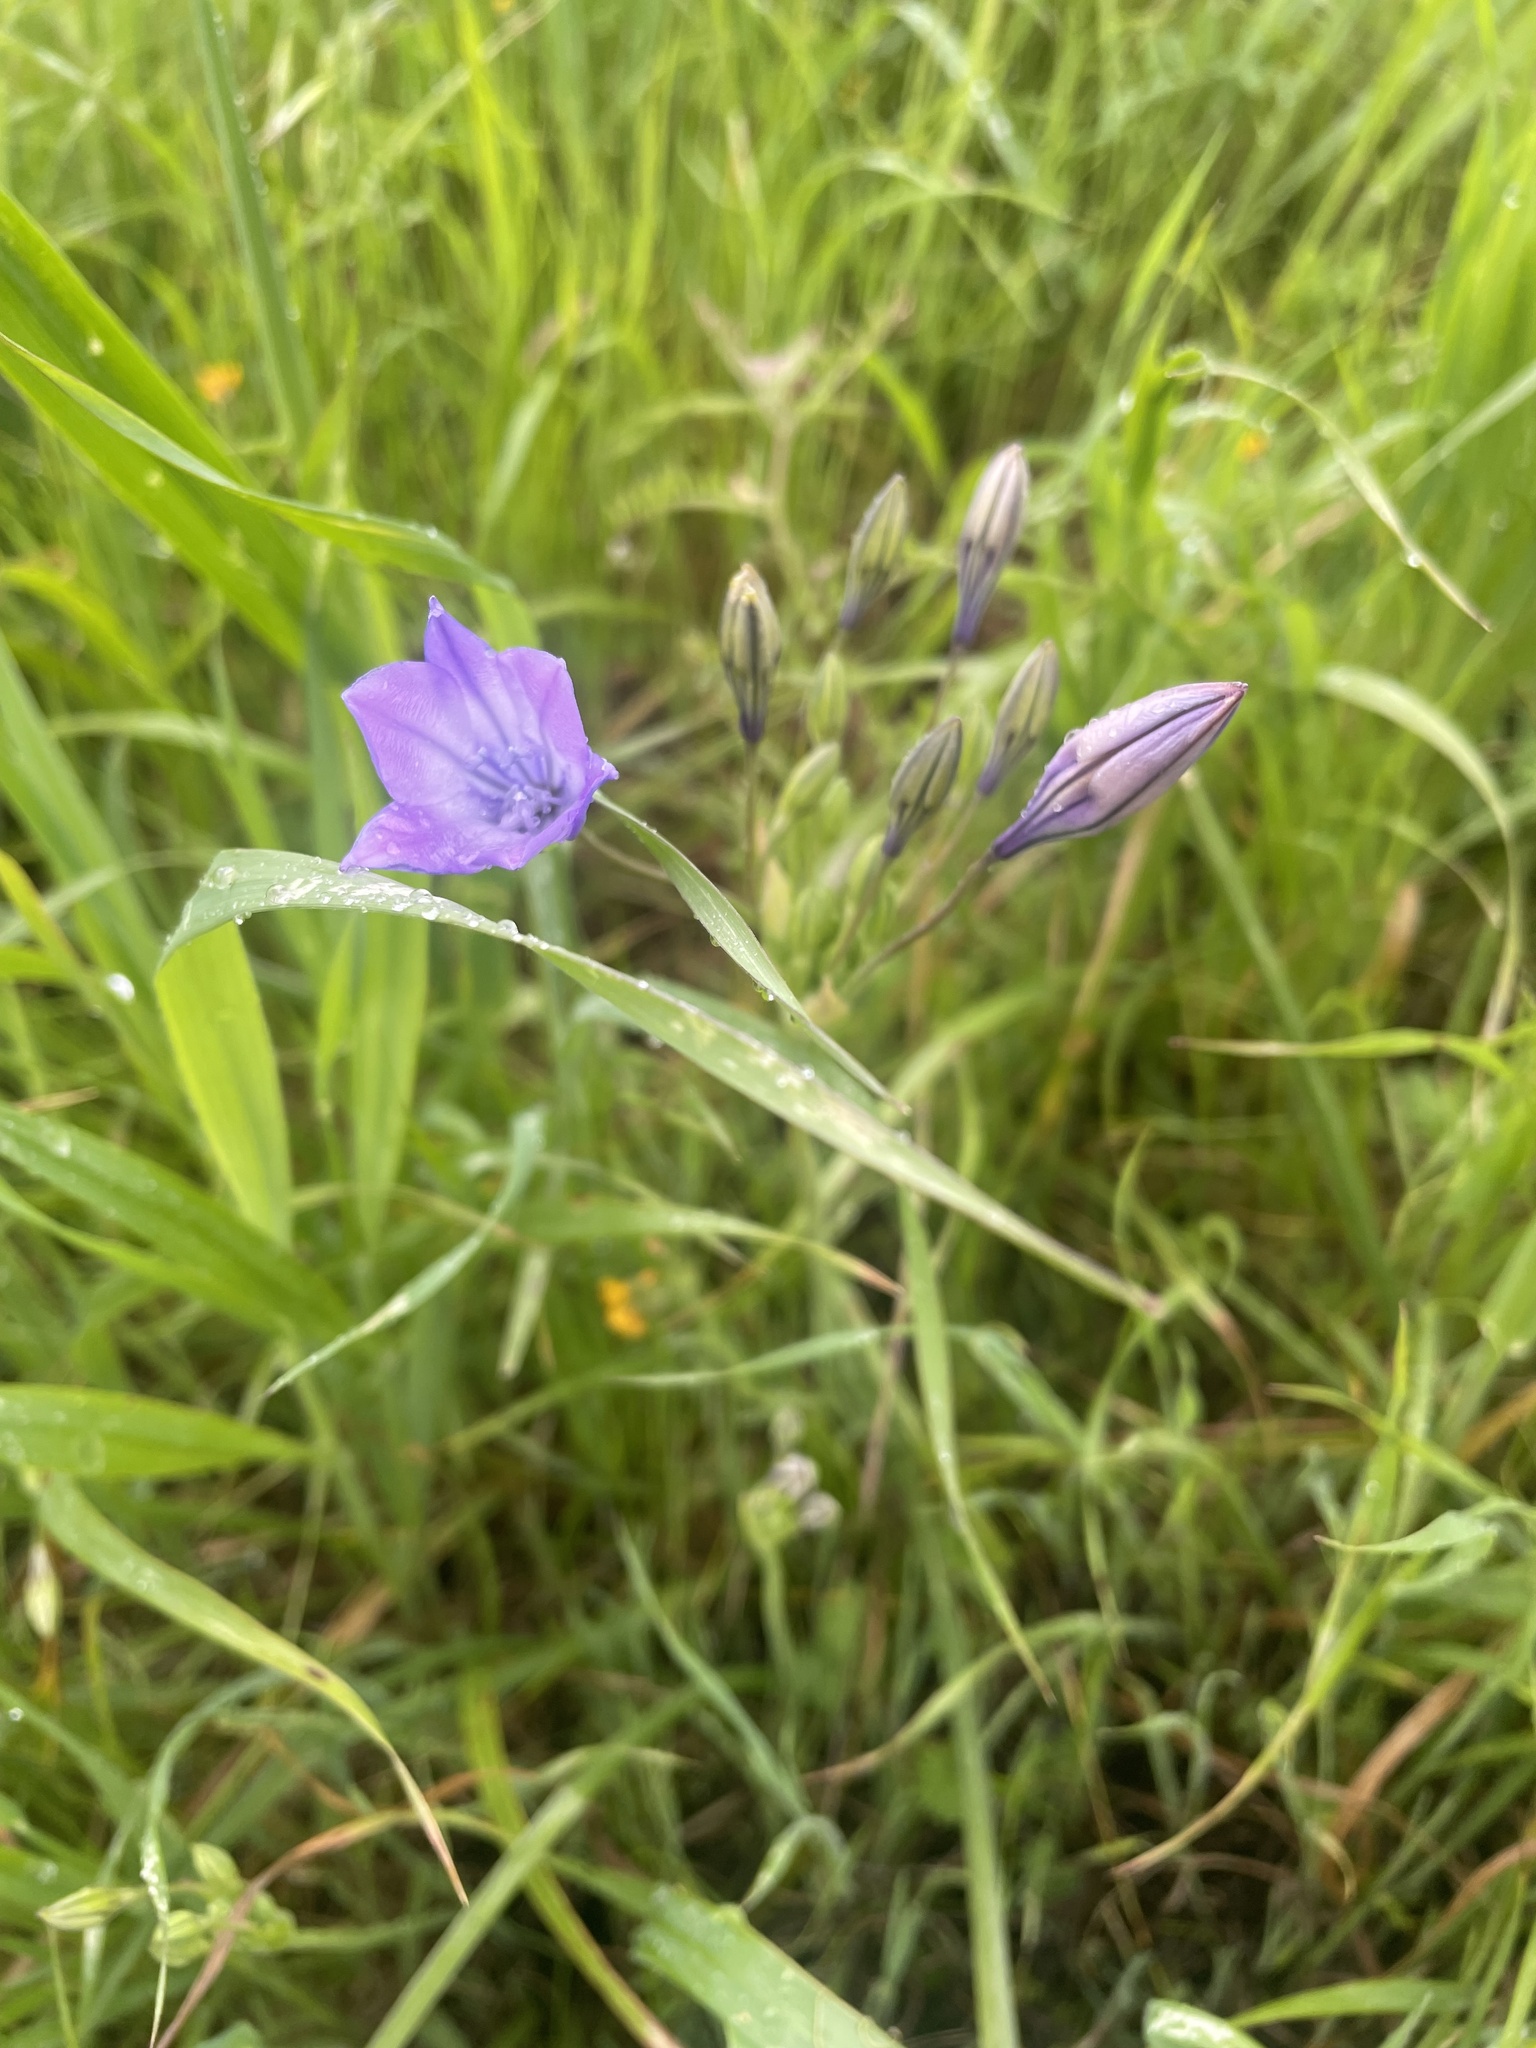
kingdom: Plantae
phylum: Tracheophyta
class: Liliopsida
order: Asparagales
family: Asparagaceae
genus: Triteleia
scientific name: Triteleia laxa
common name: Triplet-lily
